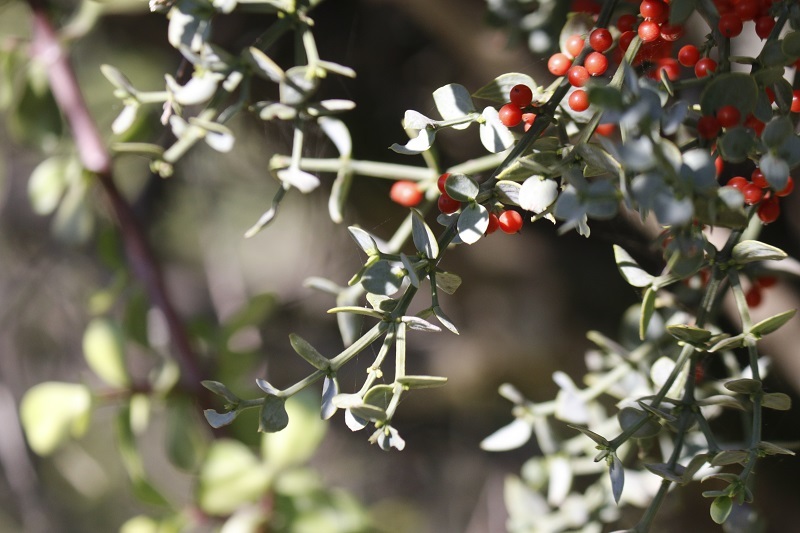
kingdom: Plantae
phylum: Tracheophyta
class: Magnoliopsida
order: Santalales
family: Viscaceae
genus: Viscum
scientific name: Viscum rotundifolium
